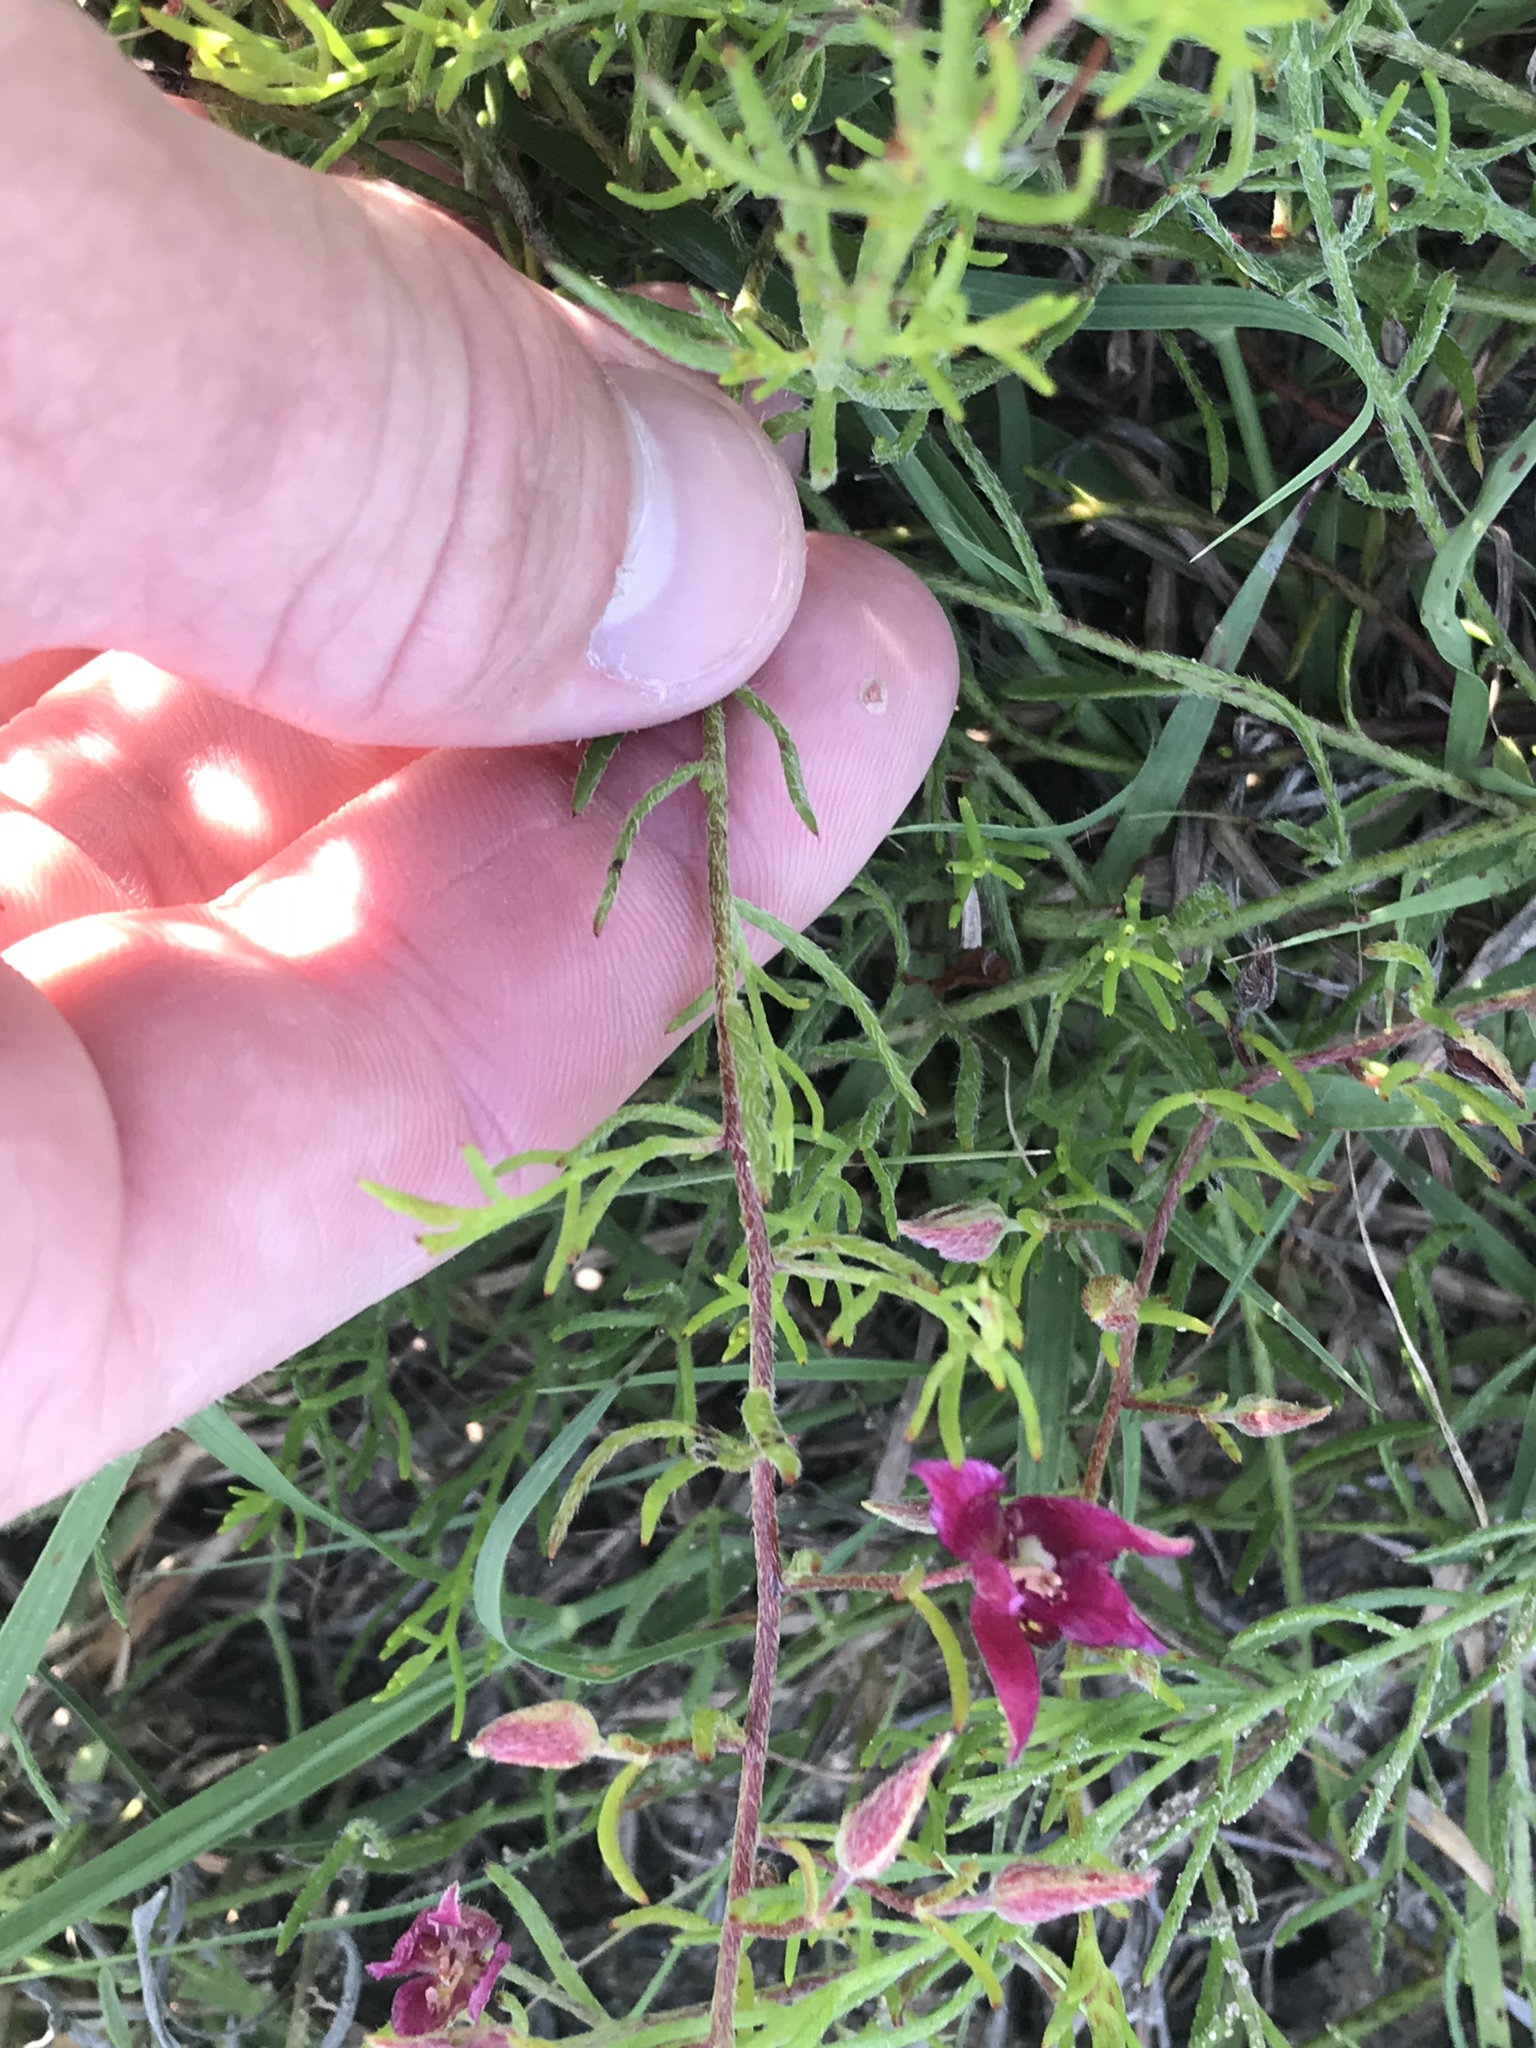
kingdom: Plantae
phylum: Tracheophyta
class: Magnoliopsida
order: Zygophyllales
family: Krameriaceae
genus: Krameria
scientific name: Krameria lanceolata
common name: Ratany
